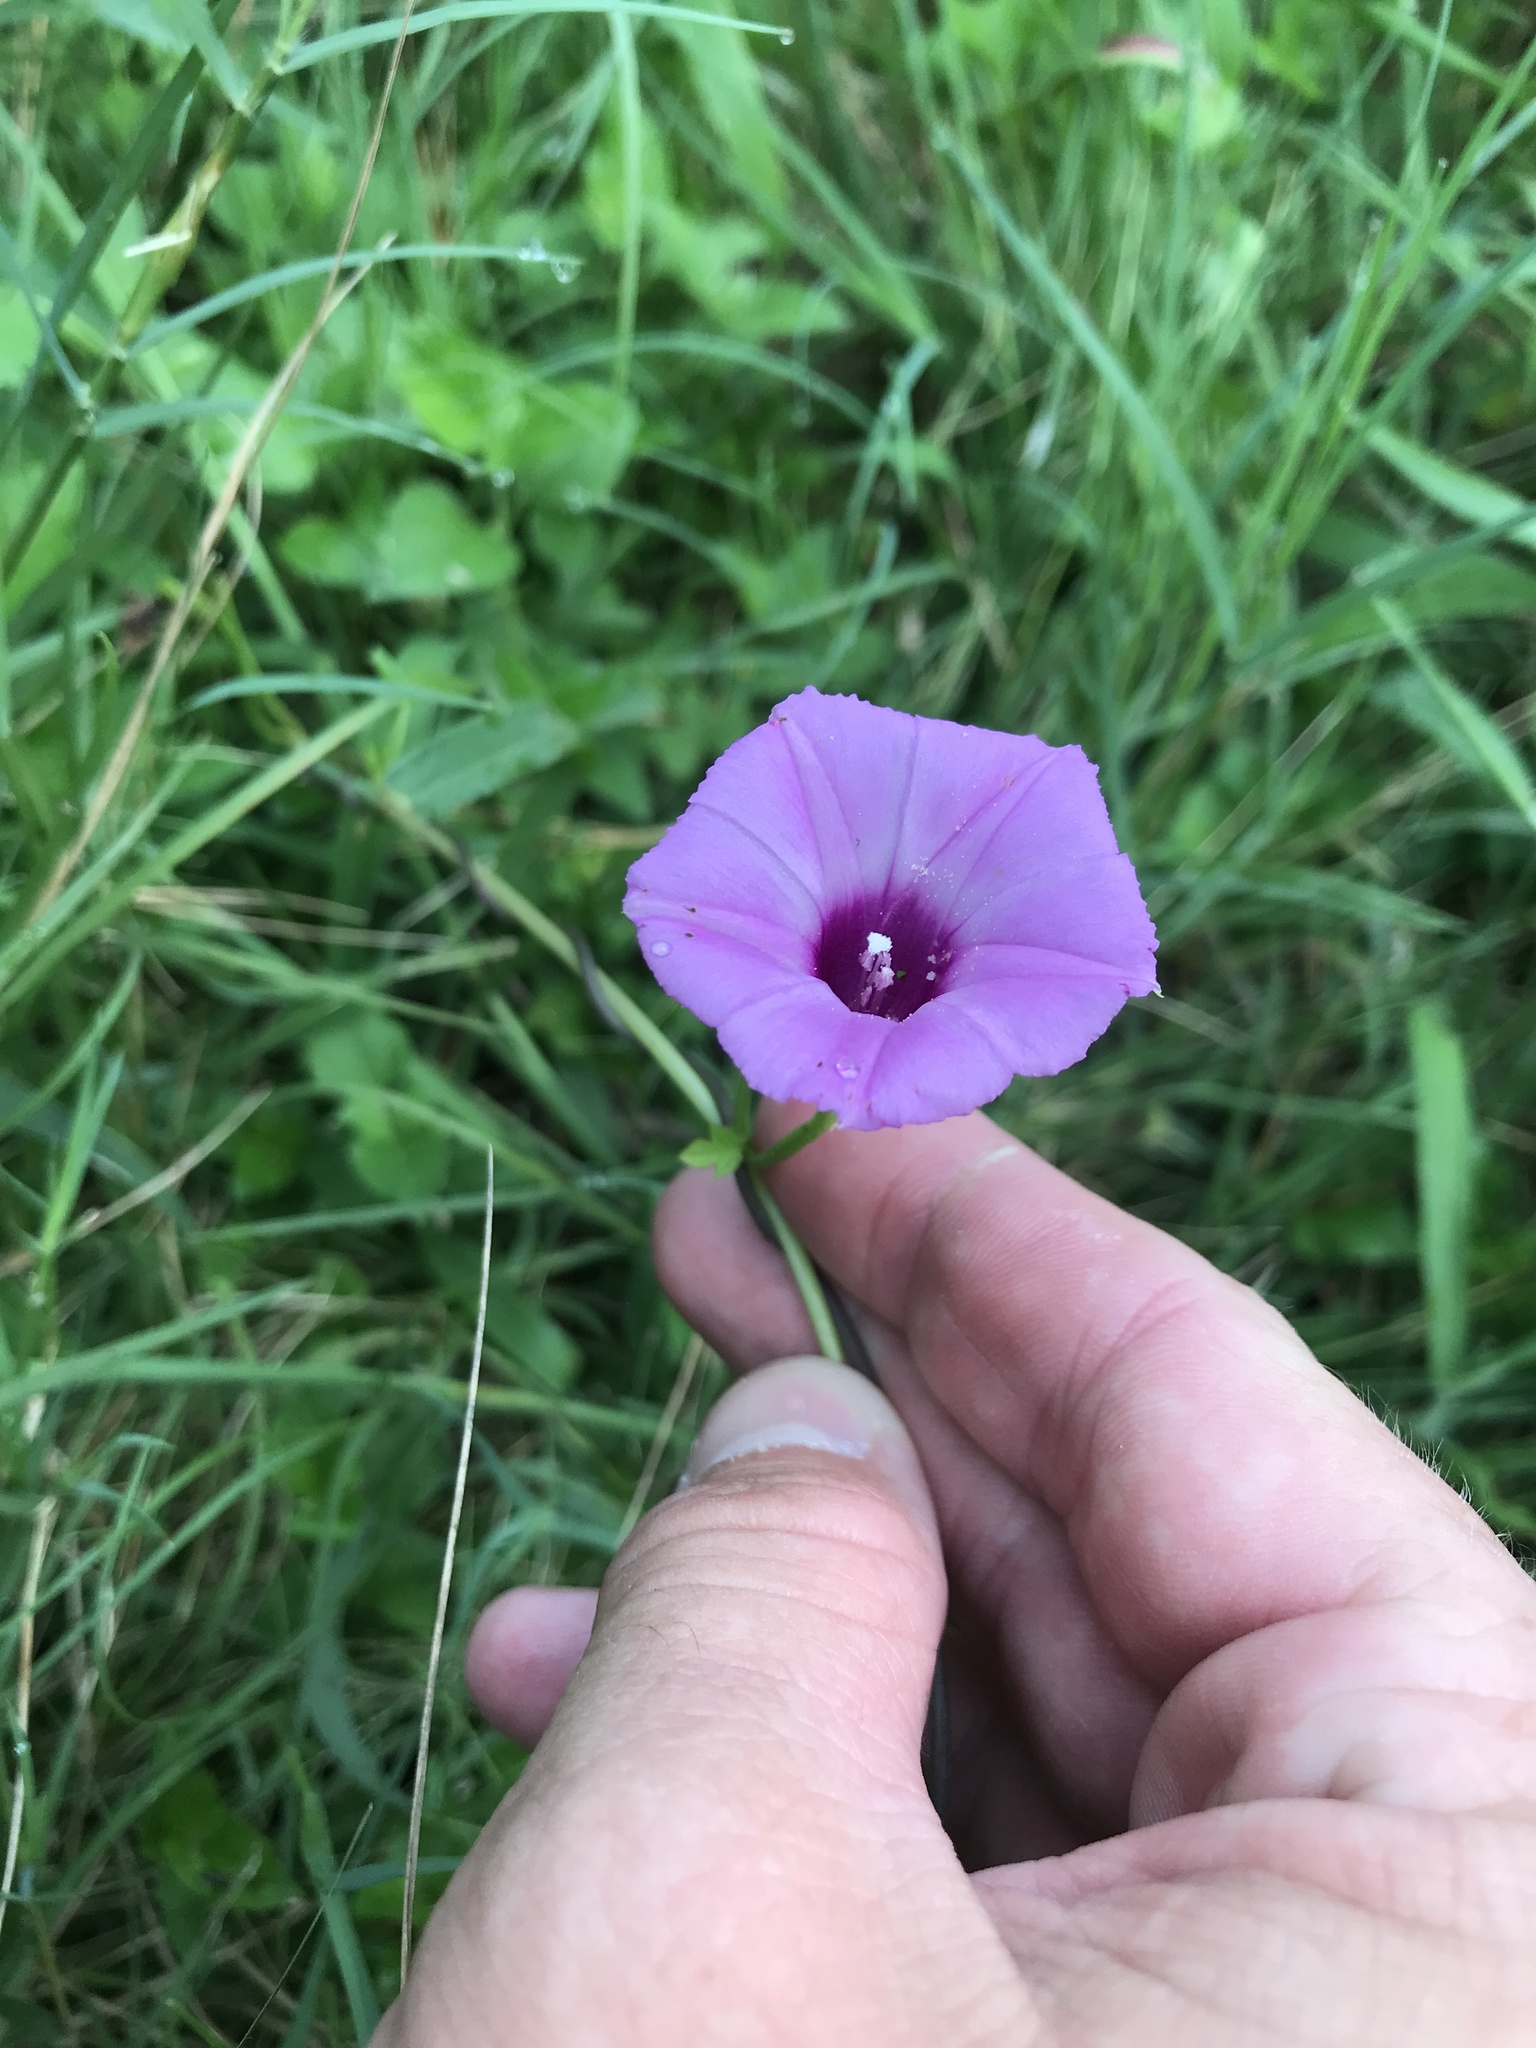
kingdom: Plantae
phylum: Tracheophyta
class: Magnoliopsida
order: Solanales
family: Convolvulaceae
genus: Ipomoea
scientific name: Ipomoea cordatotriloba
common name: Cotton morning glory
